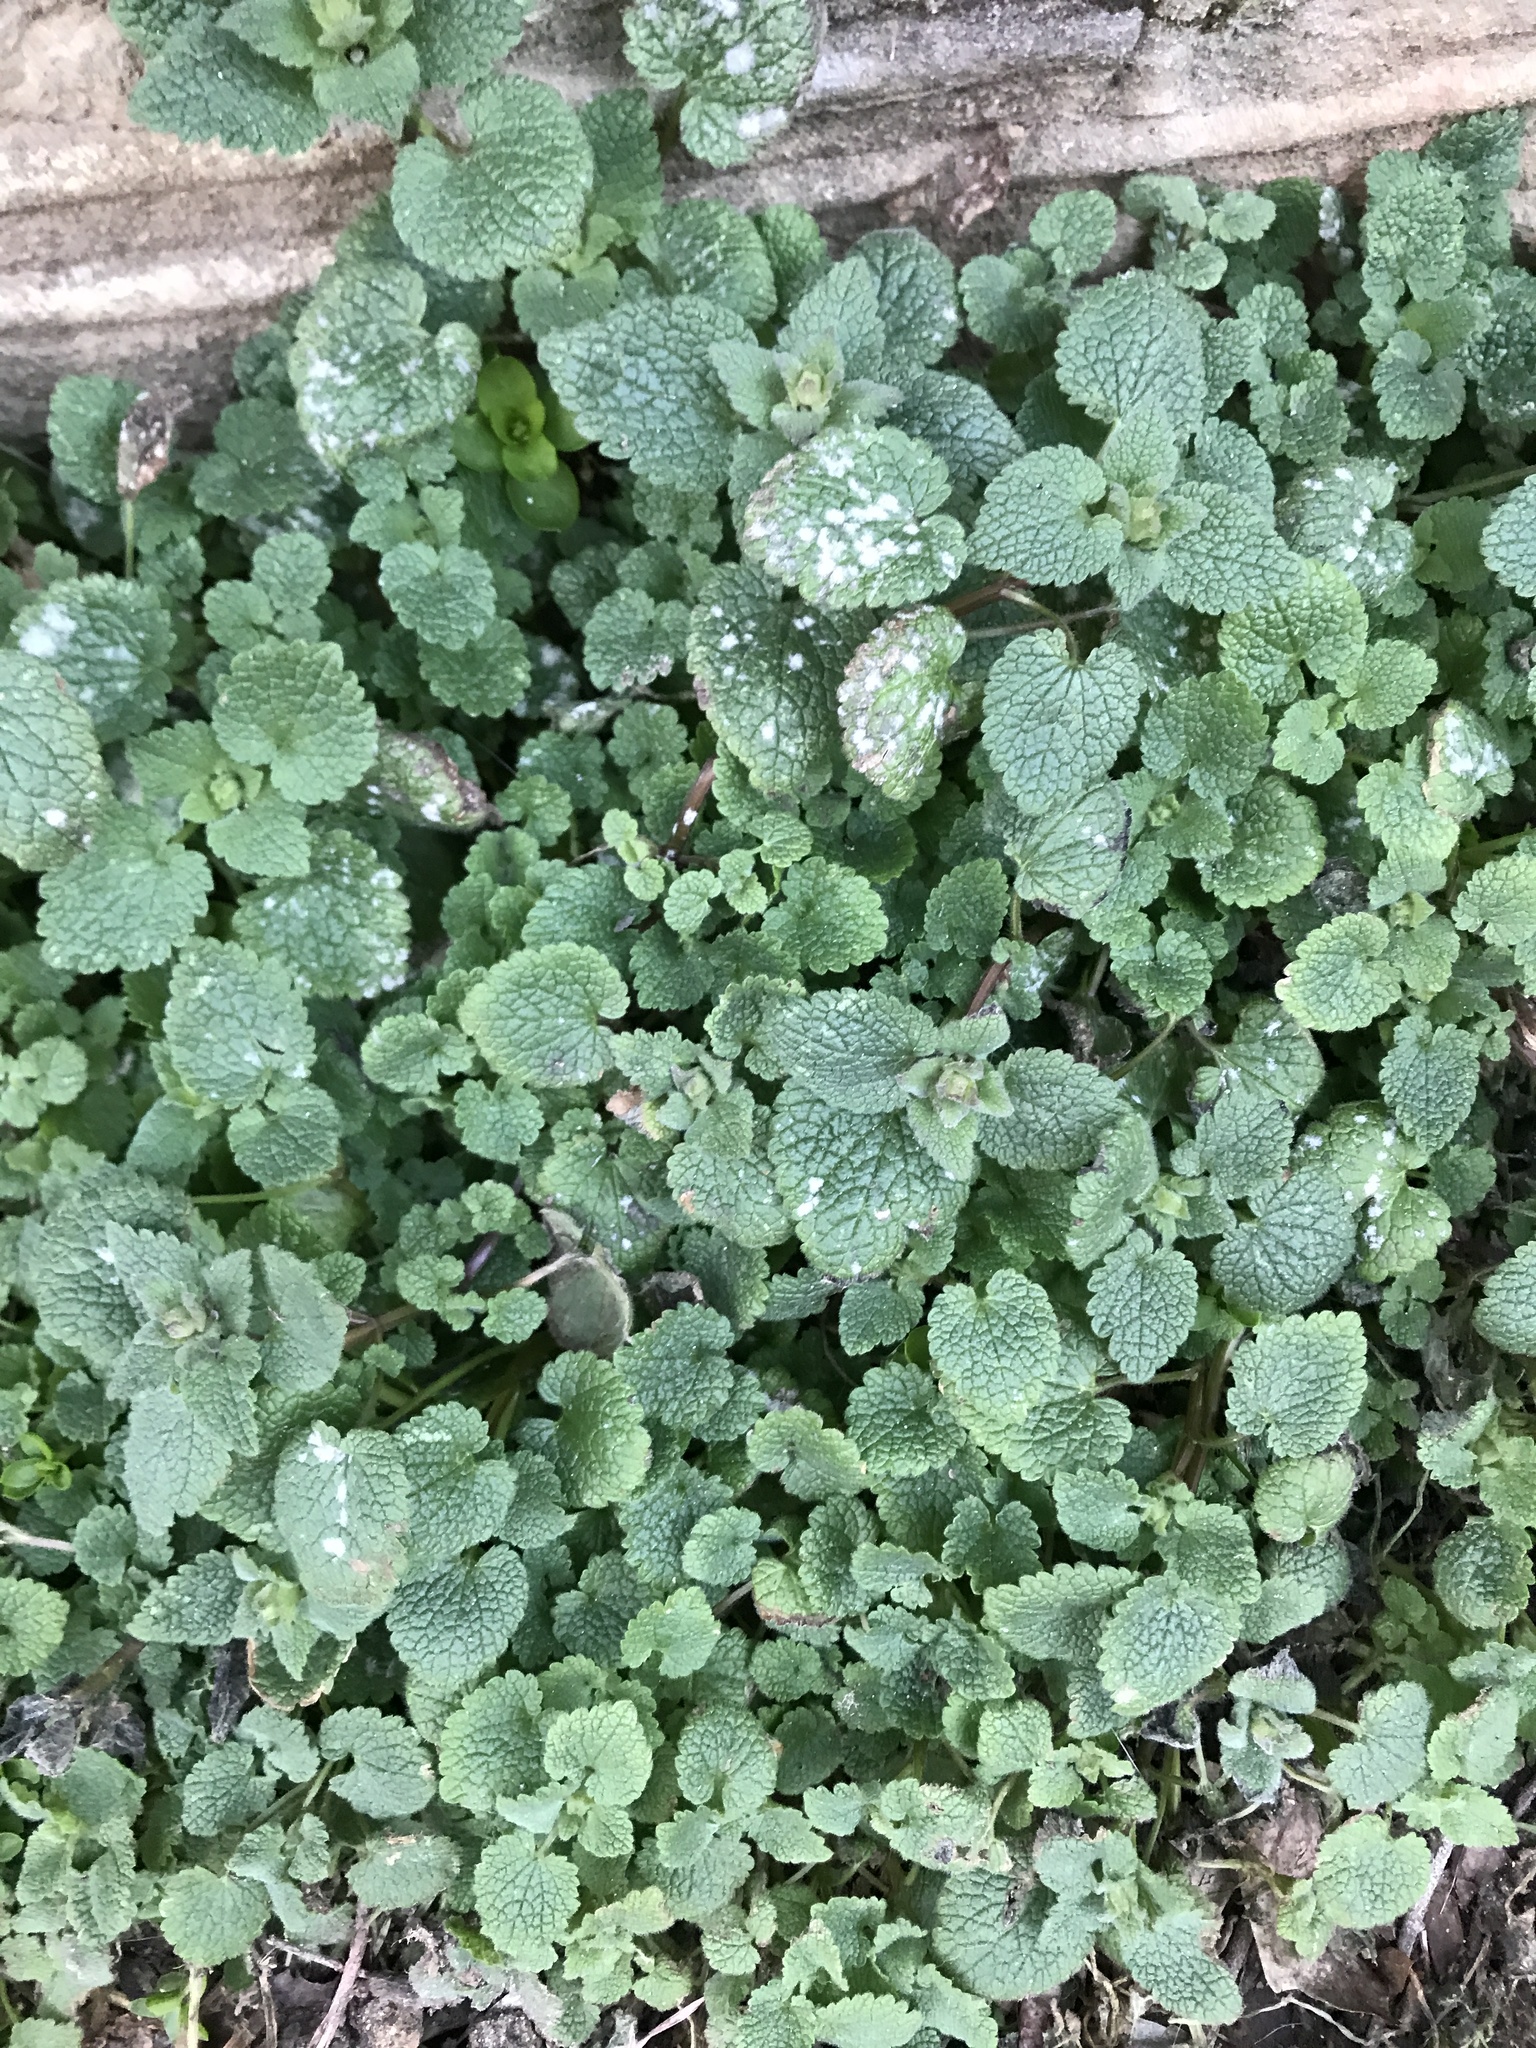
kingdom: Plantae
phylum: Tracheophyta
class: Magnoliopsida
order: Lamiales
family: Lamiaceae
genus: Lamium
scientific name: Lamium purpureum
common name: Red dead-nettle
